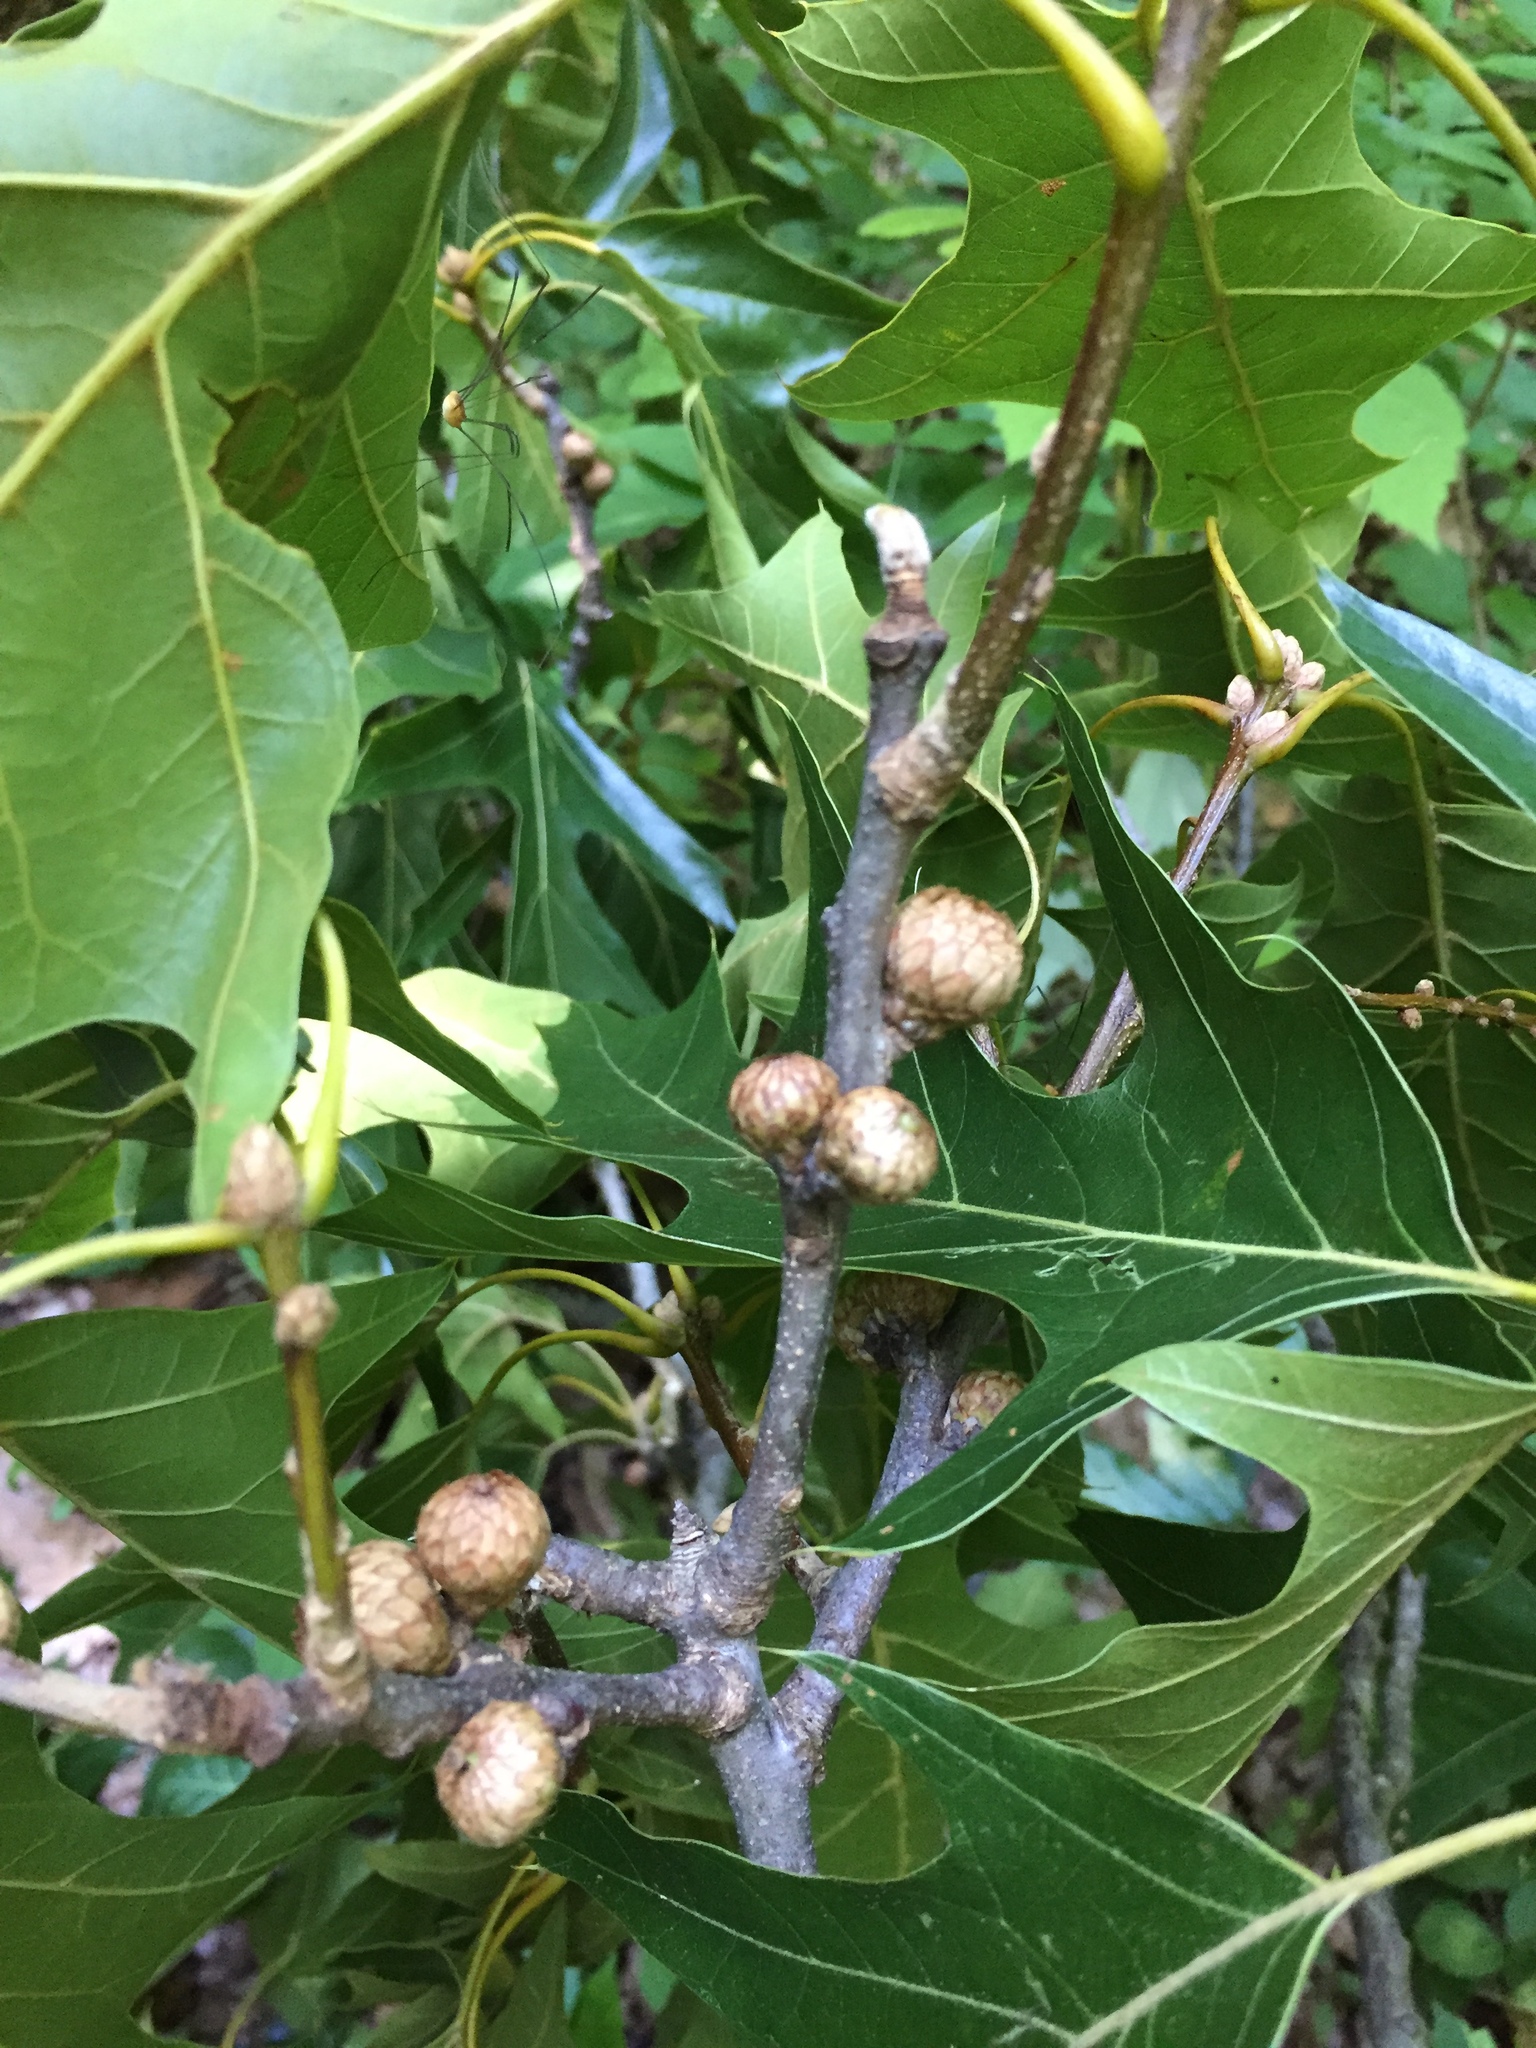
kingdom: Plantae
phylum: Tracheophyta
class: Magnoliopsida
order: Fagales
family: Fagaceae
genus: Quercus
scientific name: Quercus pagoda
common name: Cherrybark oak
